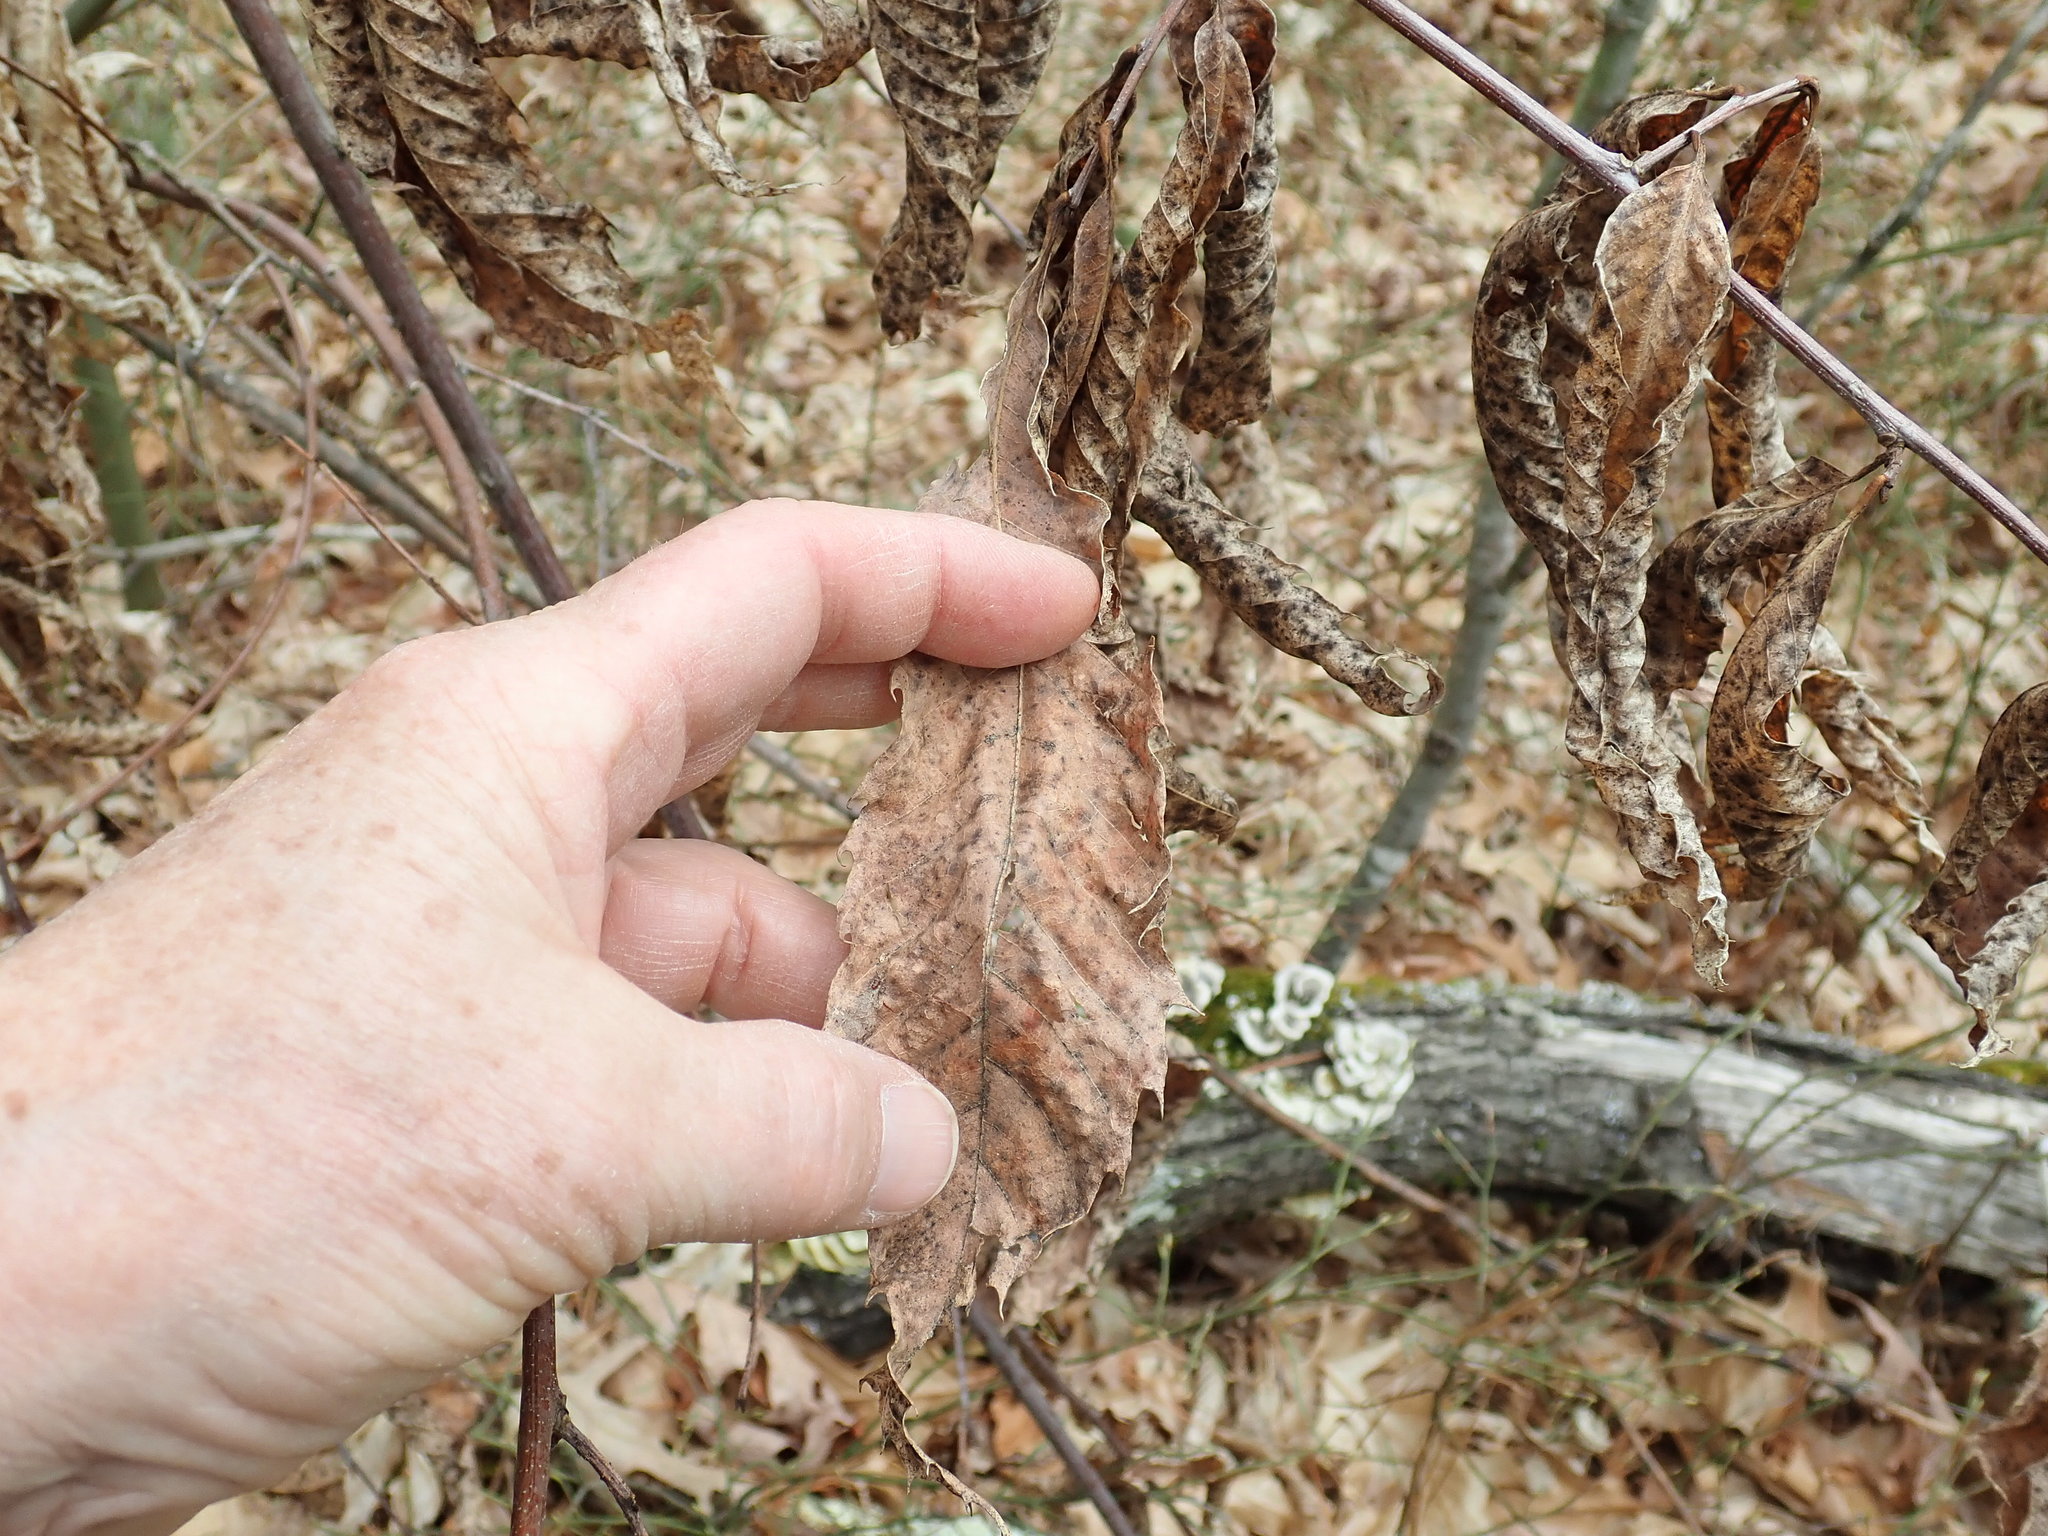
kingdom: Plantae
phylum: Tracheophyta
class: Magnoliopsida
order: Fagales
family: Fagaceae
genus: Castanea
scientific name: Castanea dentata
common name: American chestnut
